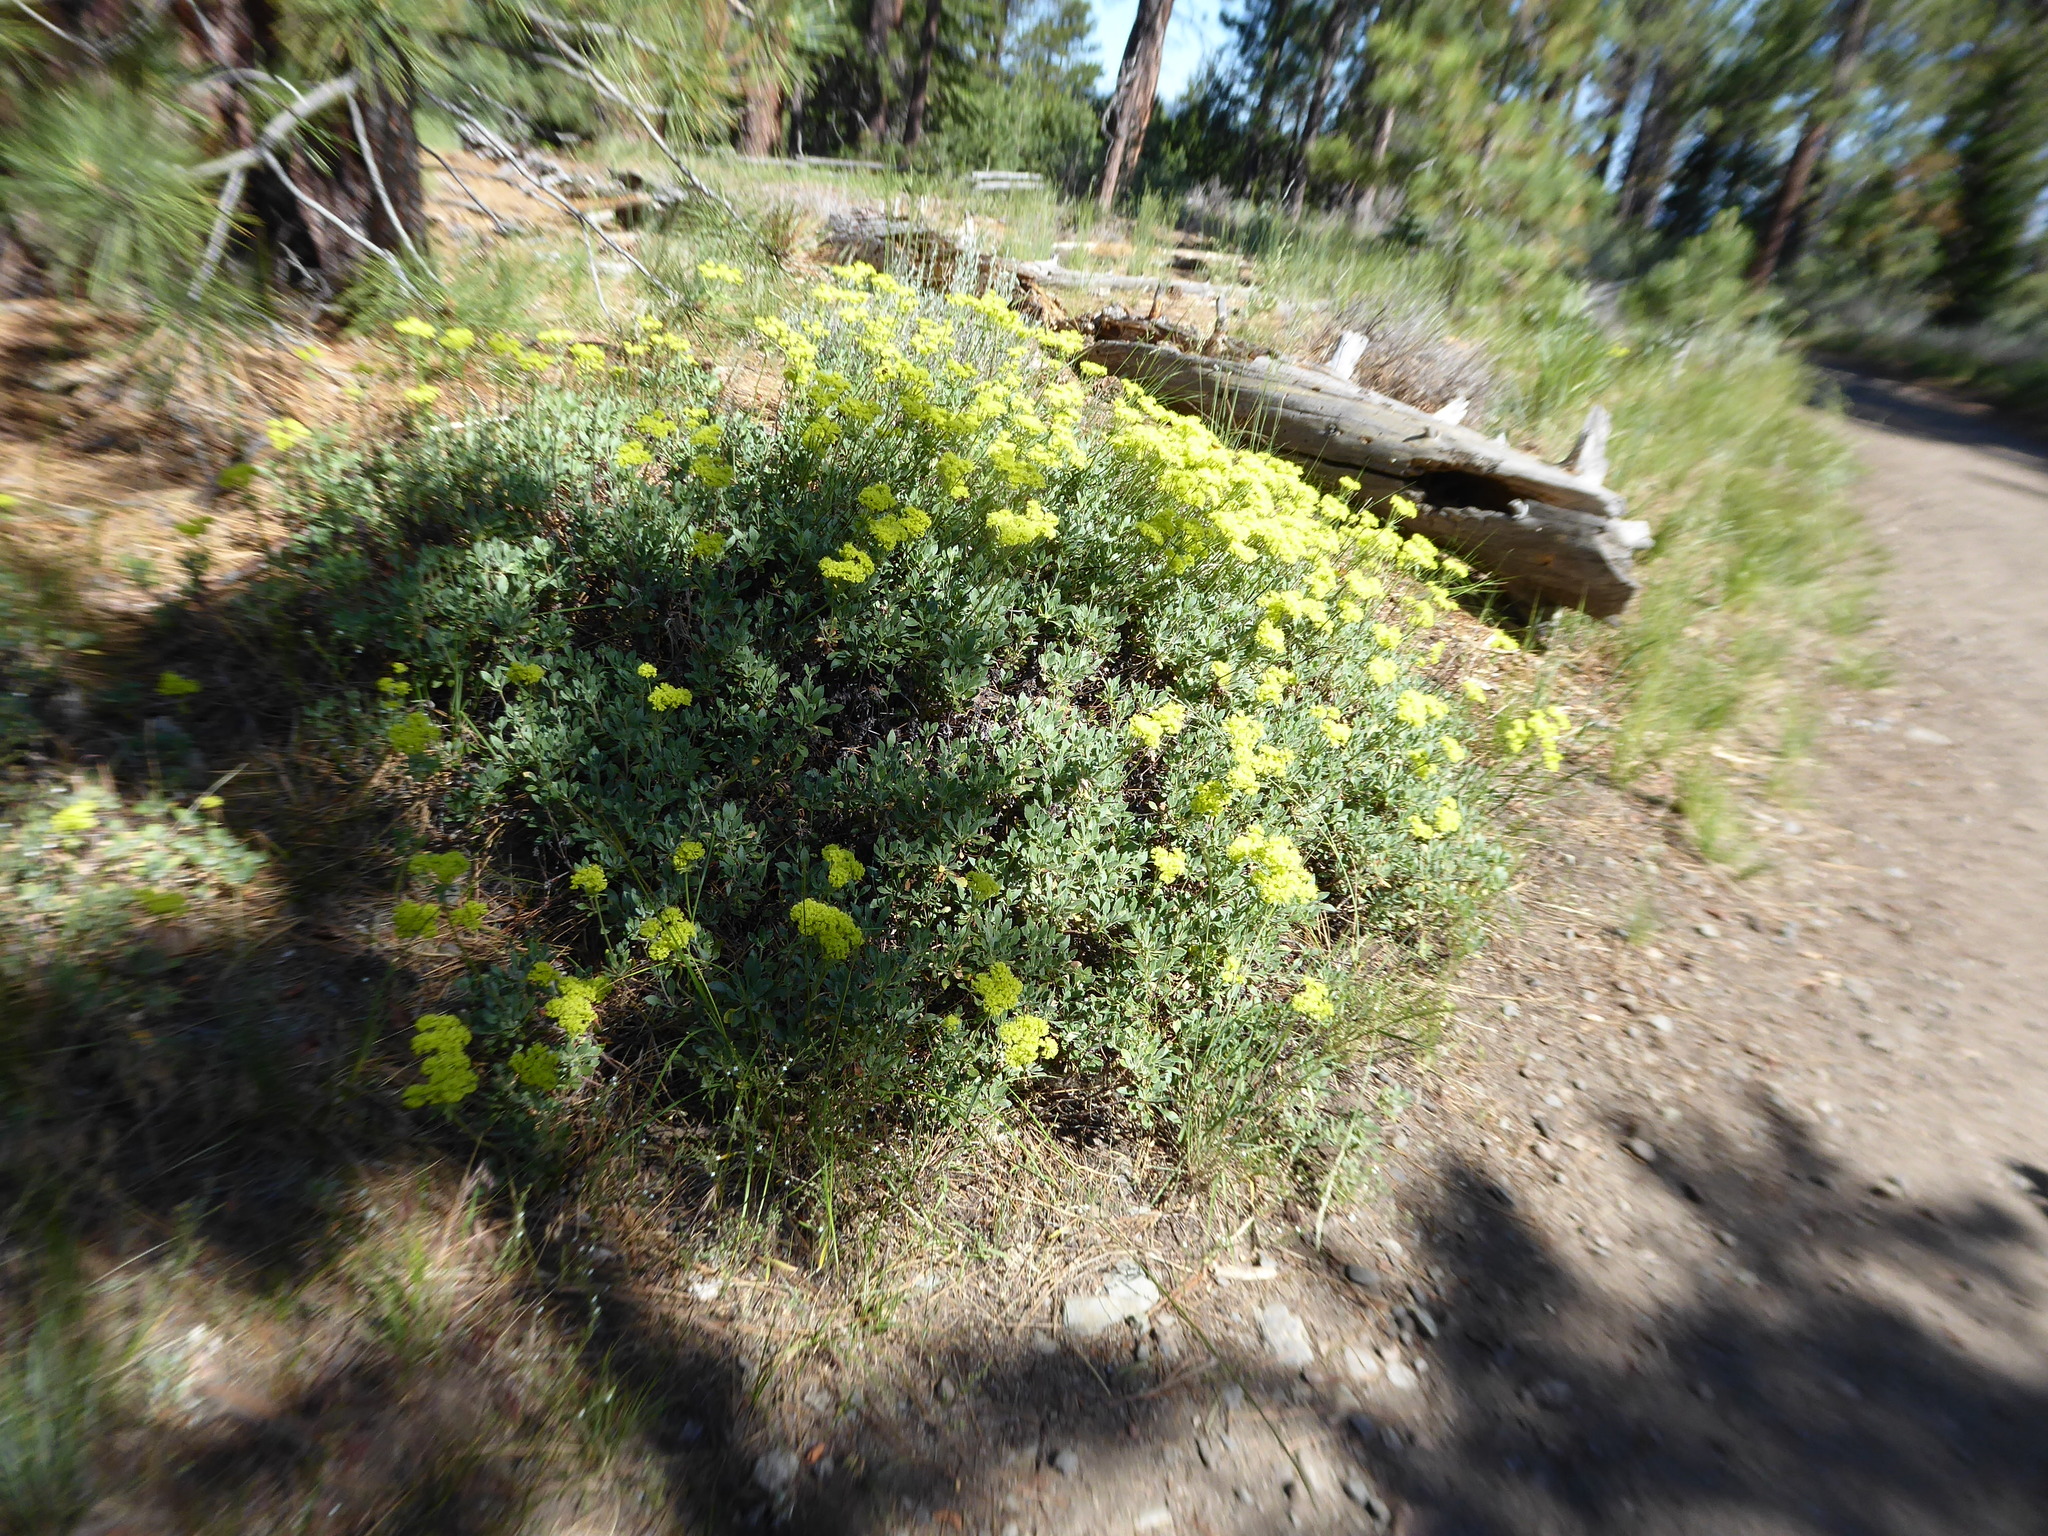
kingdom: Plantae
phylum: Tracheophyta
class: Magnoliopsida
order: Caryophyllales
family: Polygonaceae
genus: Eriogonum
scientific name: Eriogonum umbellatum
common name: Sulfur-buckwheat
